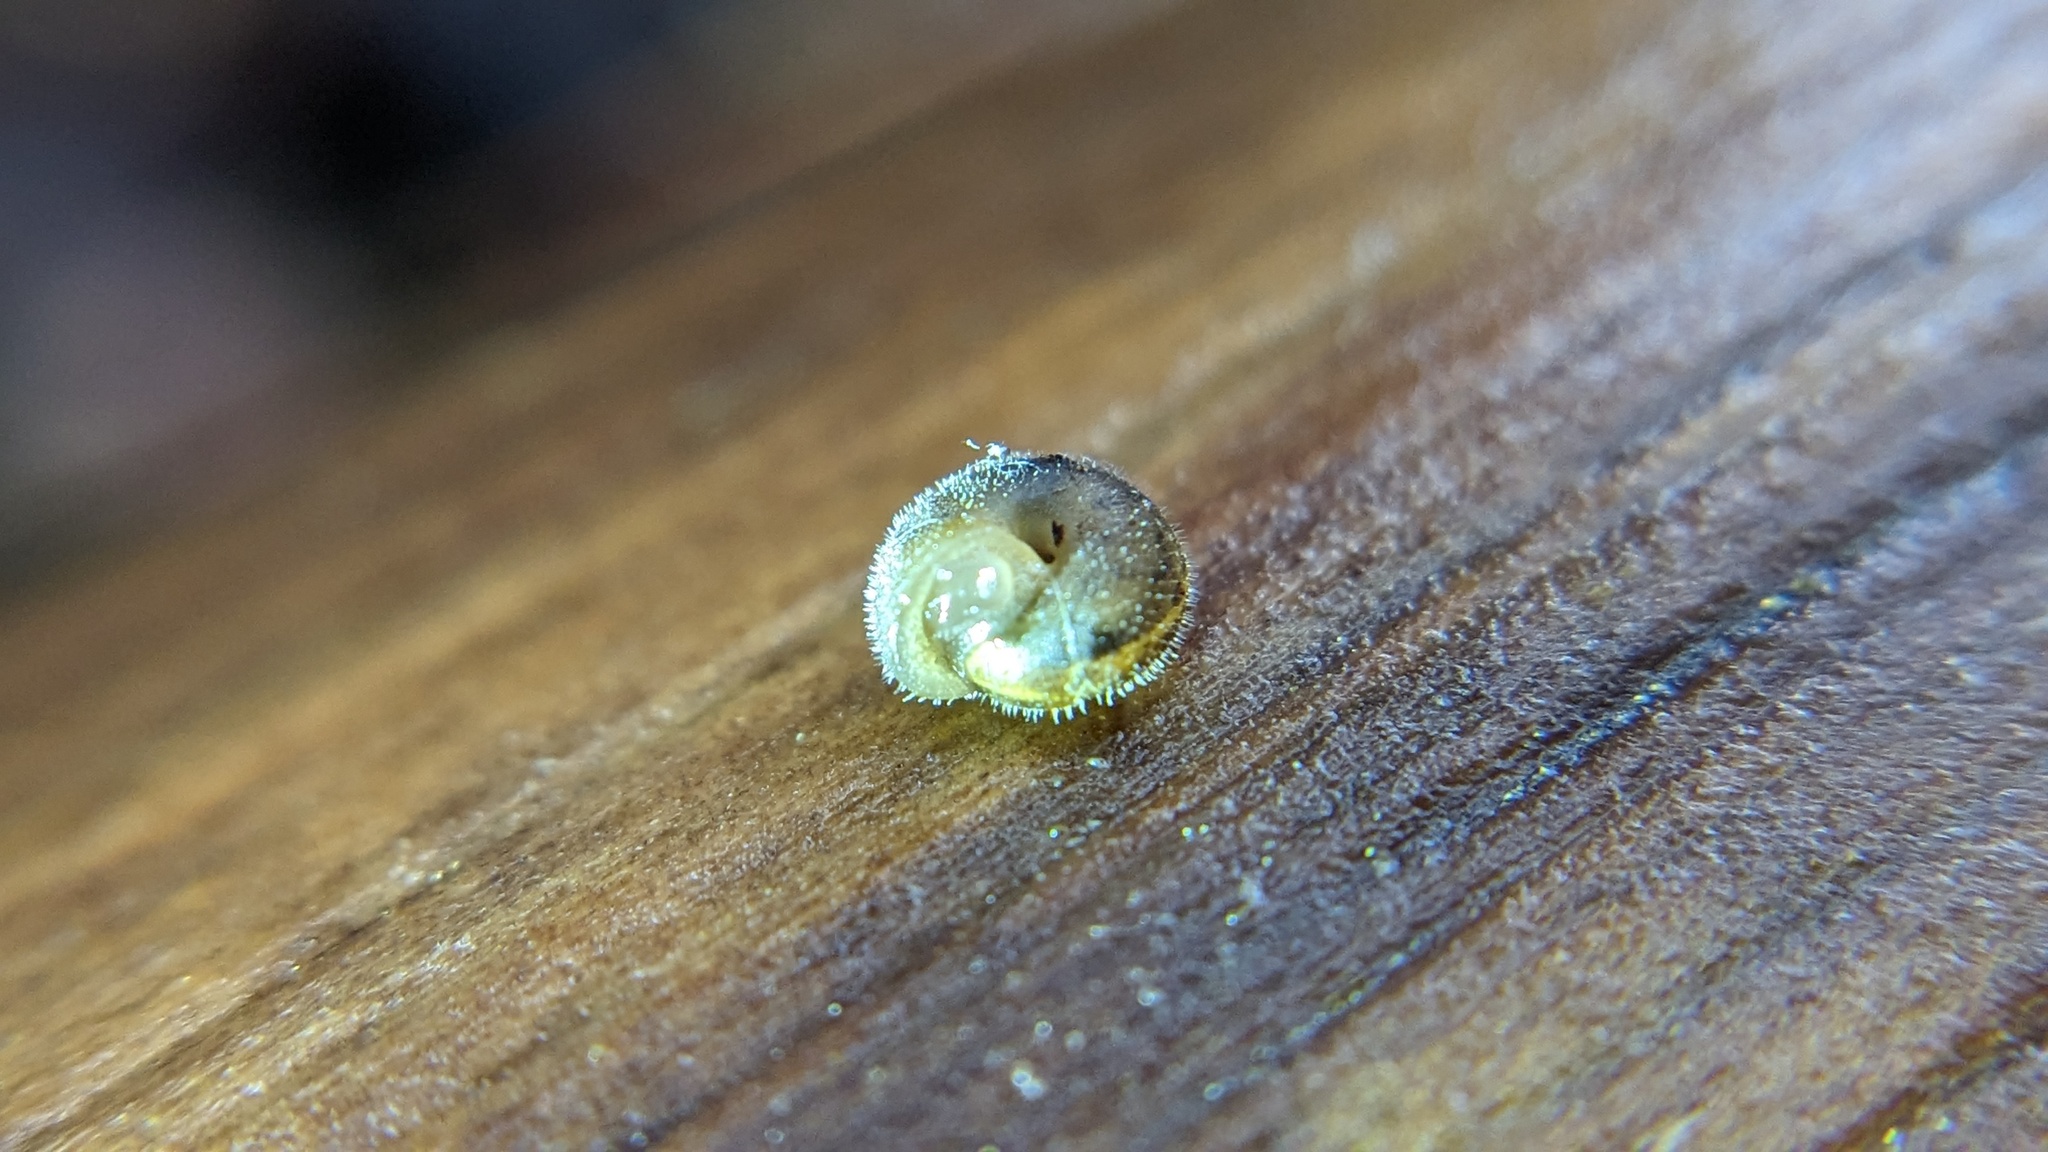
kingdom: Animalia
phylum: Mollusca
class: Gastropoda
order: Stylommatophora
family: Polygyridae
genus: Vespericola
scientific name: Vespericola columbianus
